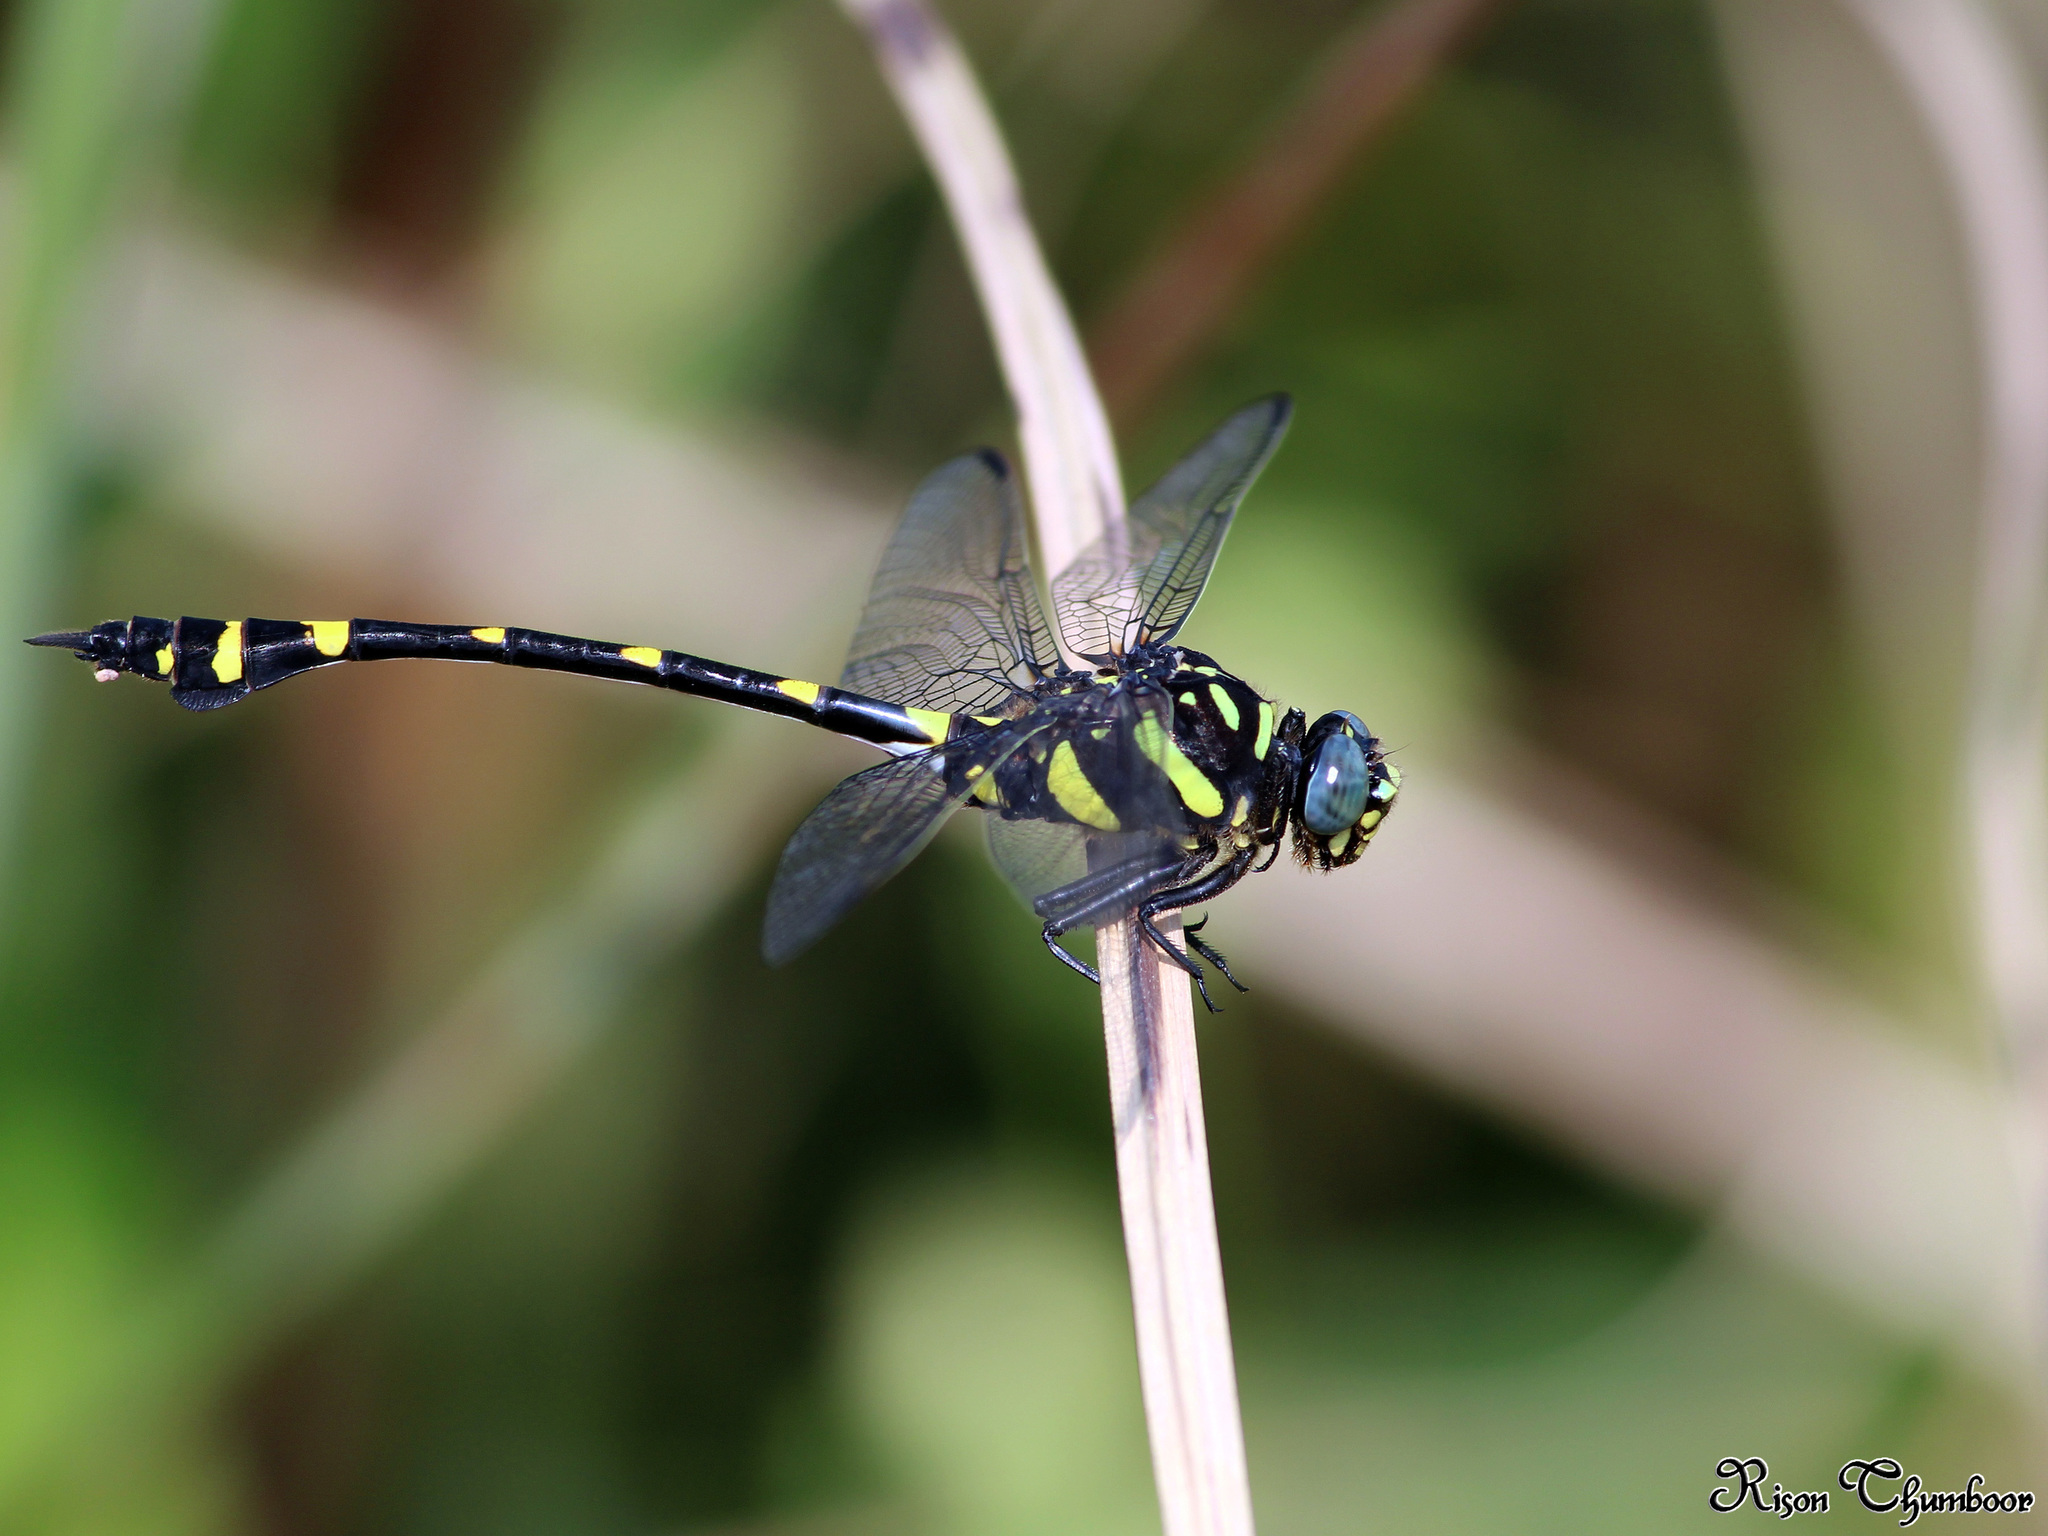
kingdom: Animalia
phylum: Arthropoda
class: Insecta
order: Odonata
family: Gomphidae
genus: Ictinogomphus
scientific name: Ictinogomphus rapax
